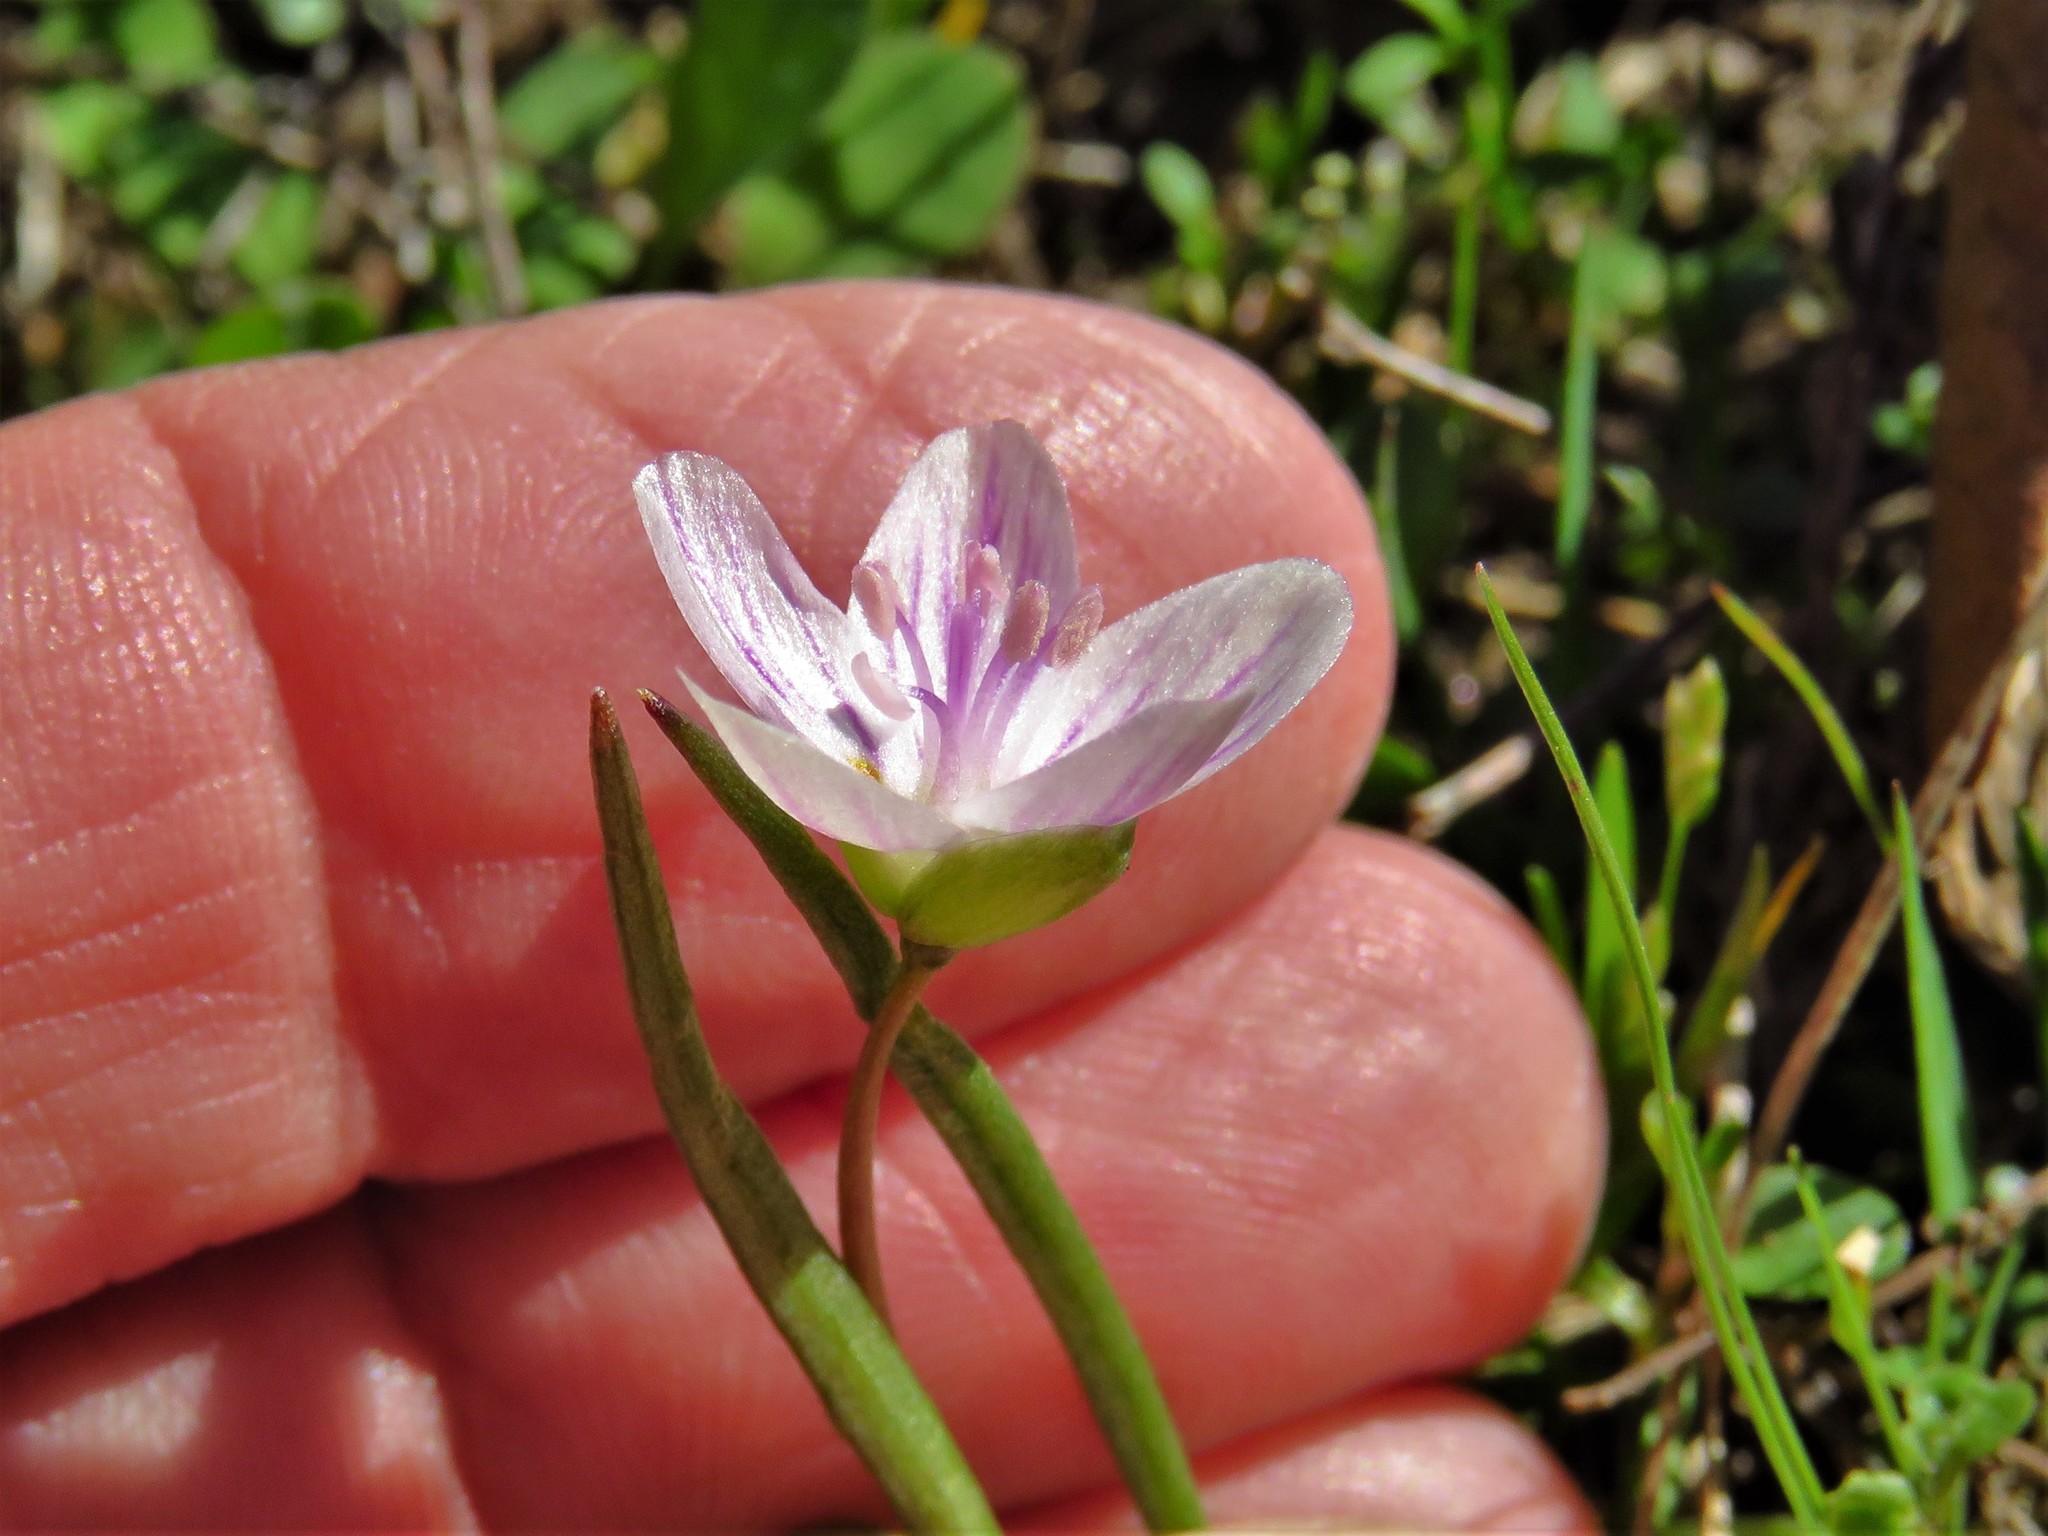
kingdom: Plantae
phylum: Tracheophyta
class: Magnoliopsida
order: Caryophyllales
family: Montiaceae
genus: Claytonia
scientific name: Claytonia virginica
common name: Virginia springbeauty
